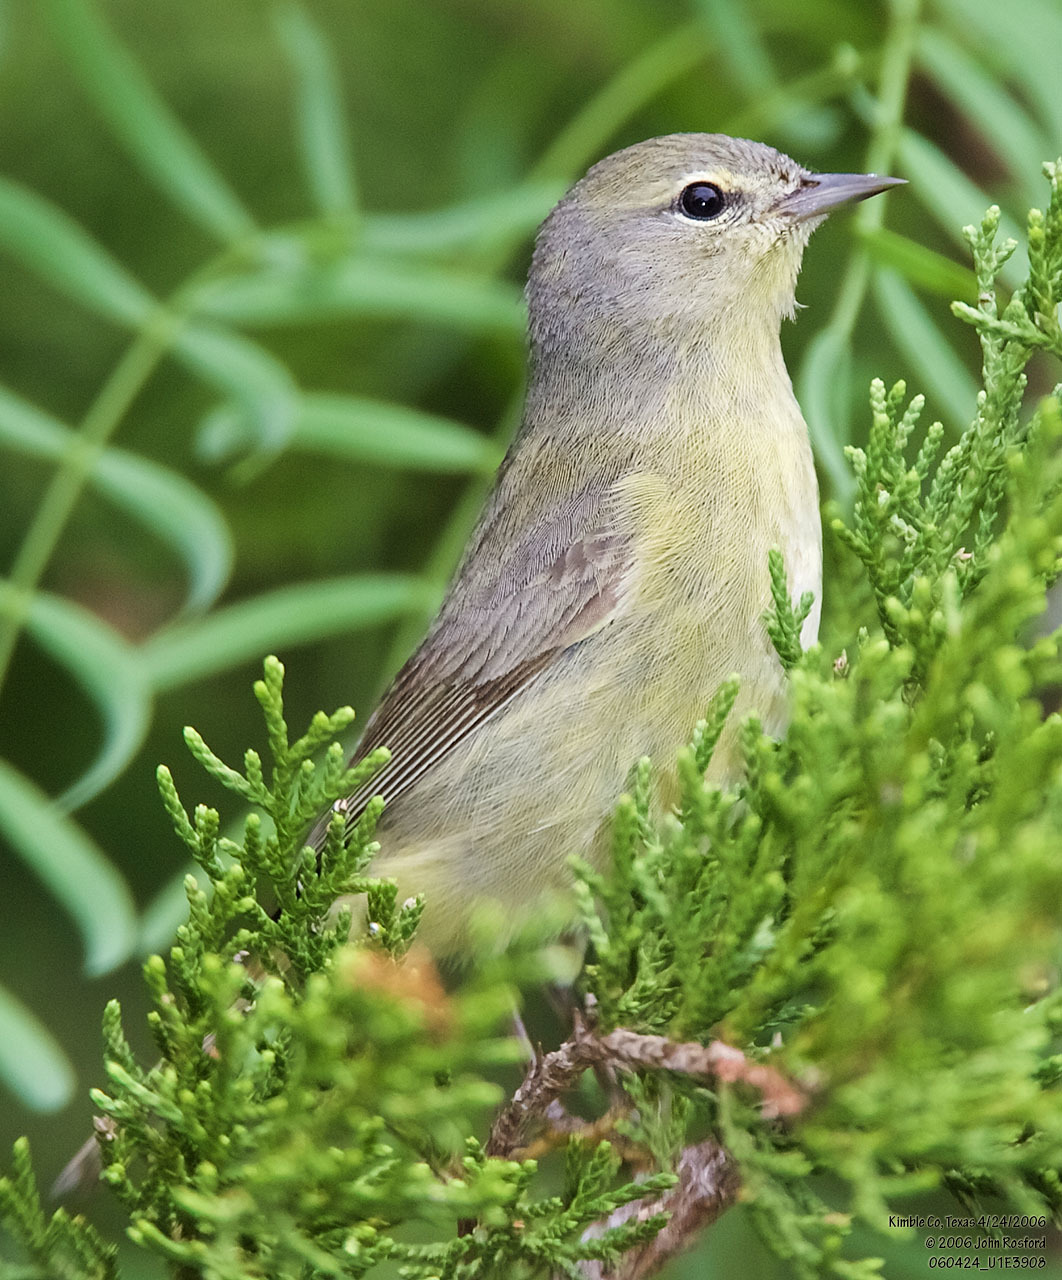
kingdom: Animalia
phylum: Chordata
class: Aves
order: Passeriformes
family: Parulidae
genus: Leiothlypis
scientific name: Leiothlypis celata
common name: Orange-crowned warbler
